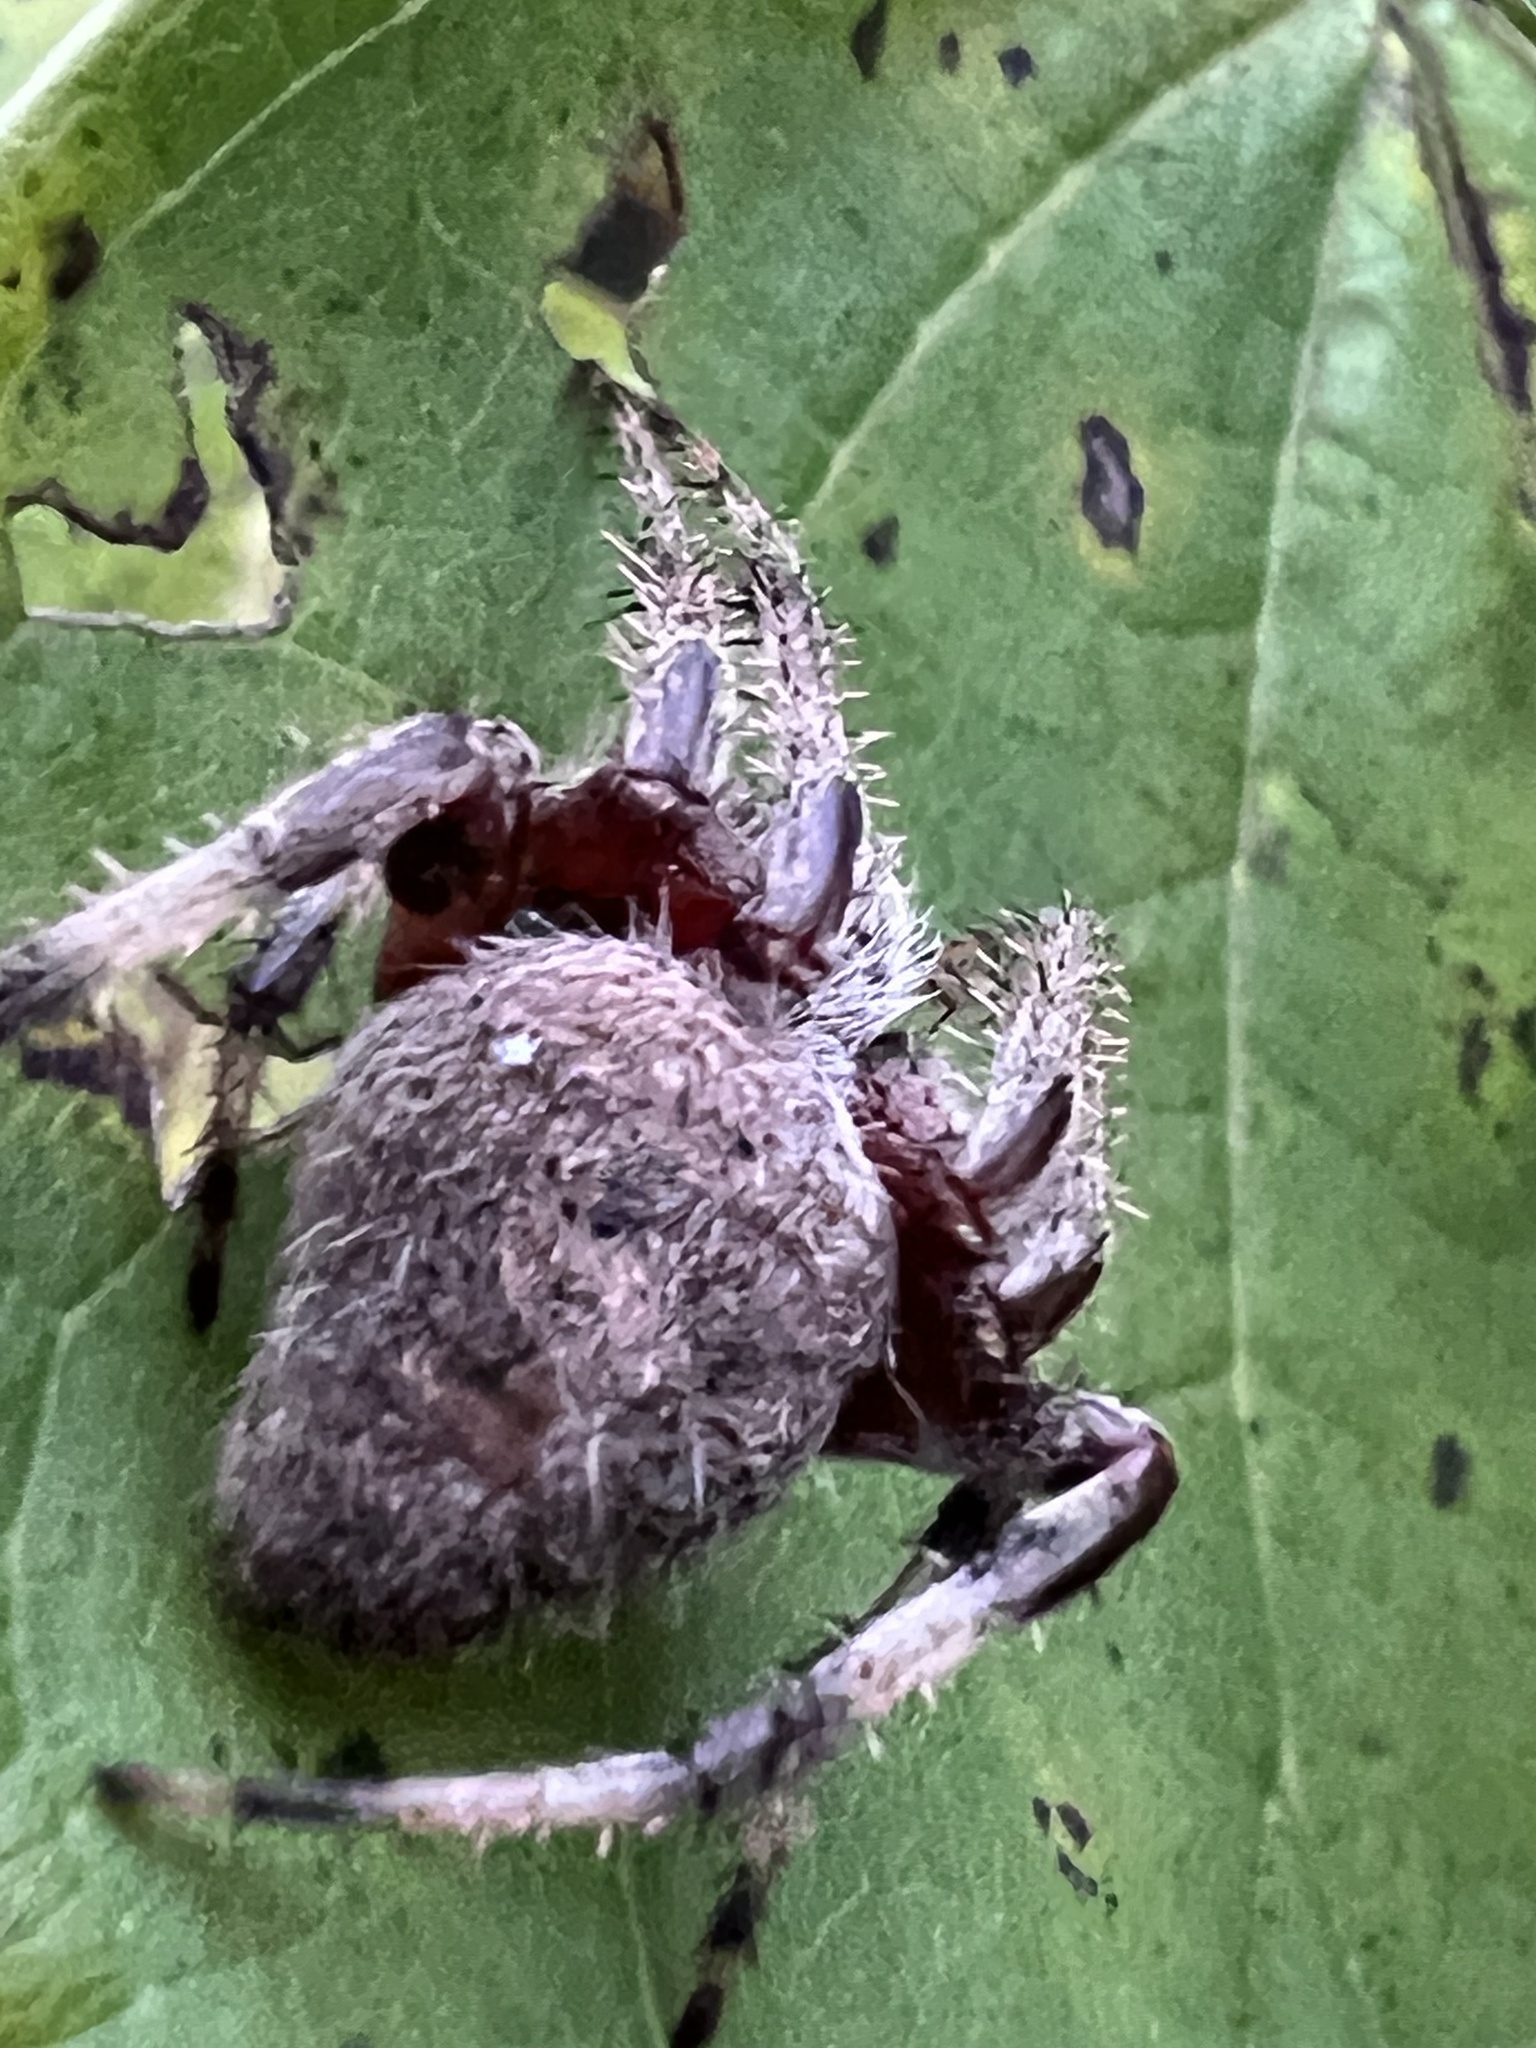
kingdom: Animalia
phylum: Arthropoda
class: Arachnida
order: Araneae
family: Araneidae
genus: Neoscona
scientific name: Neoscona crucifera
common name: Spotted orbweaver
